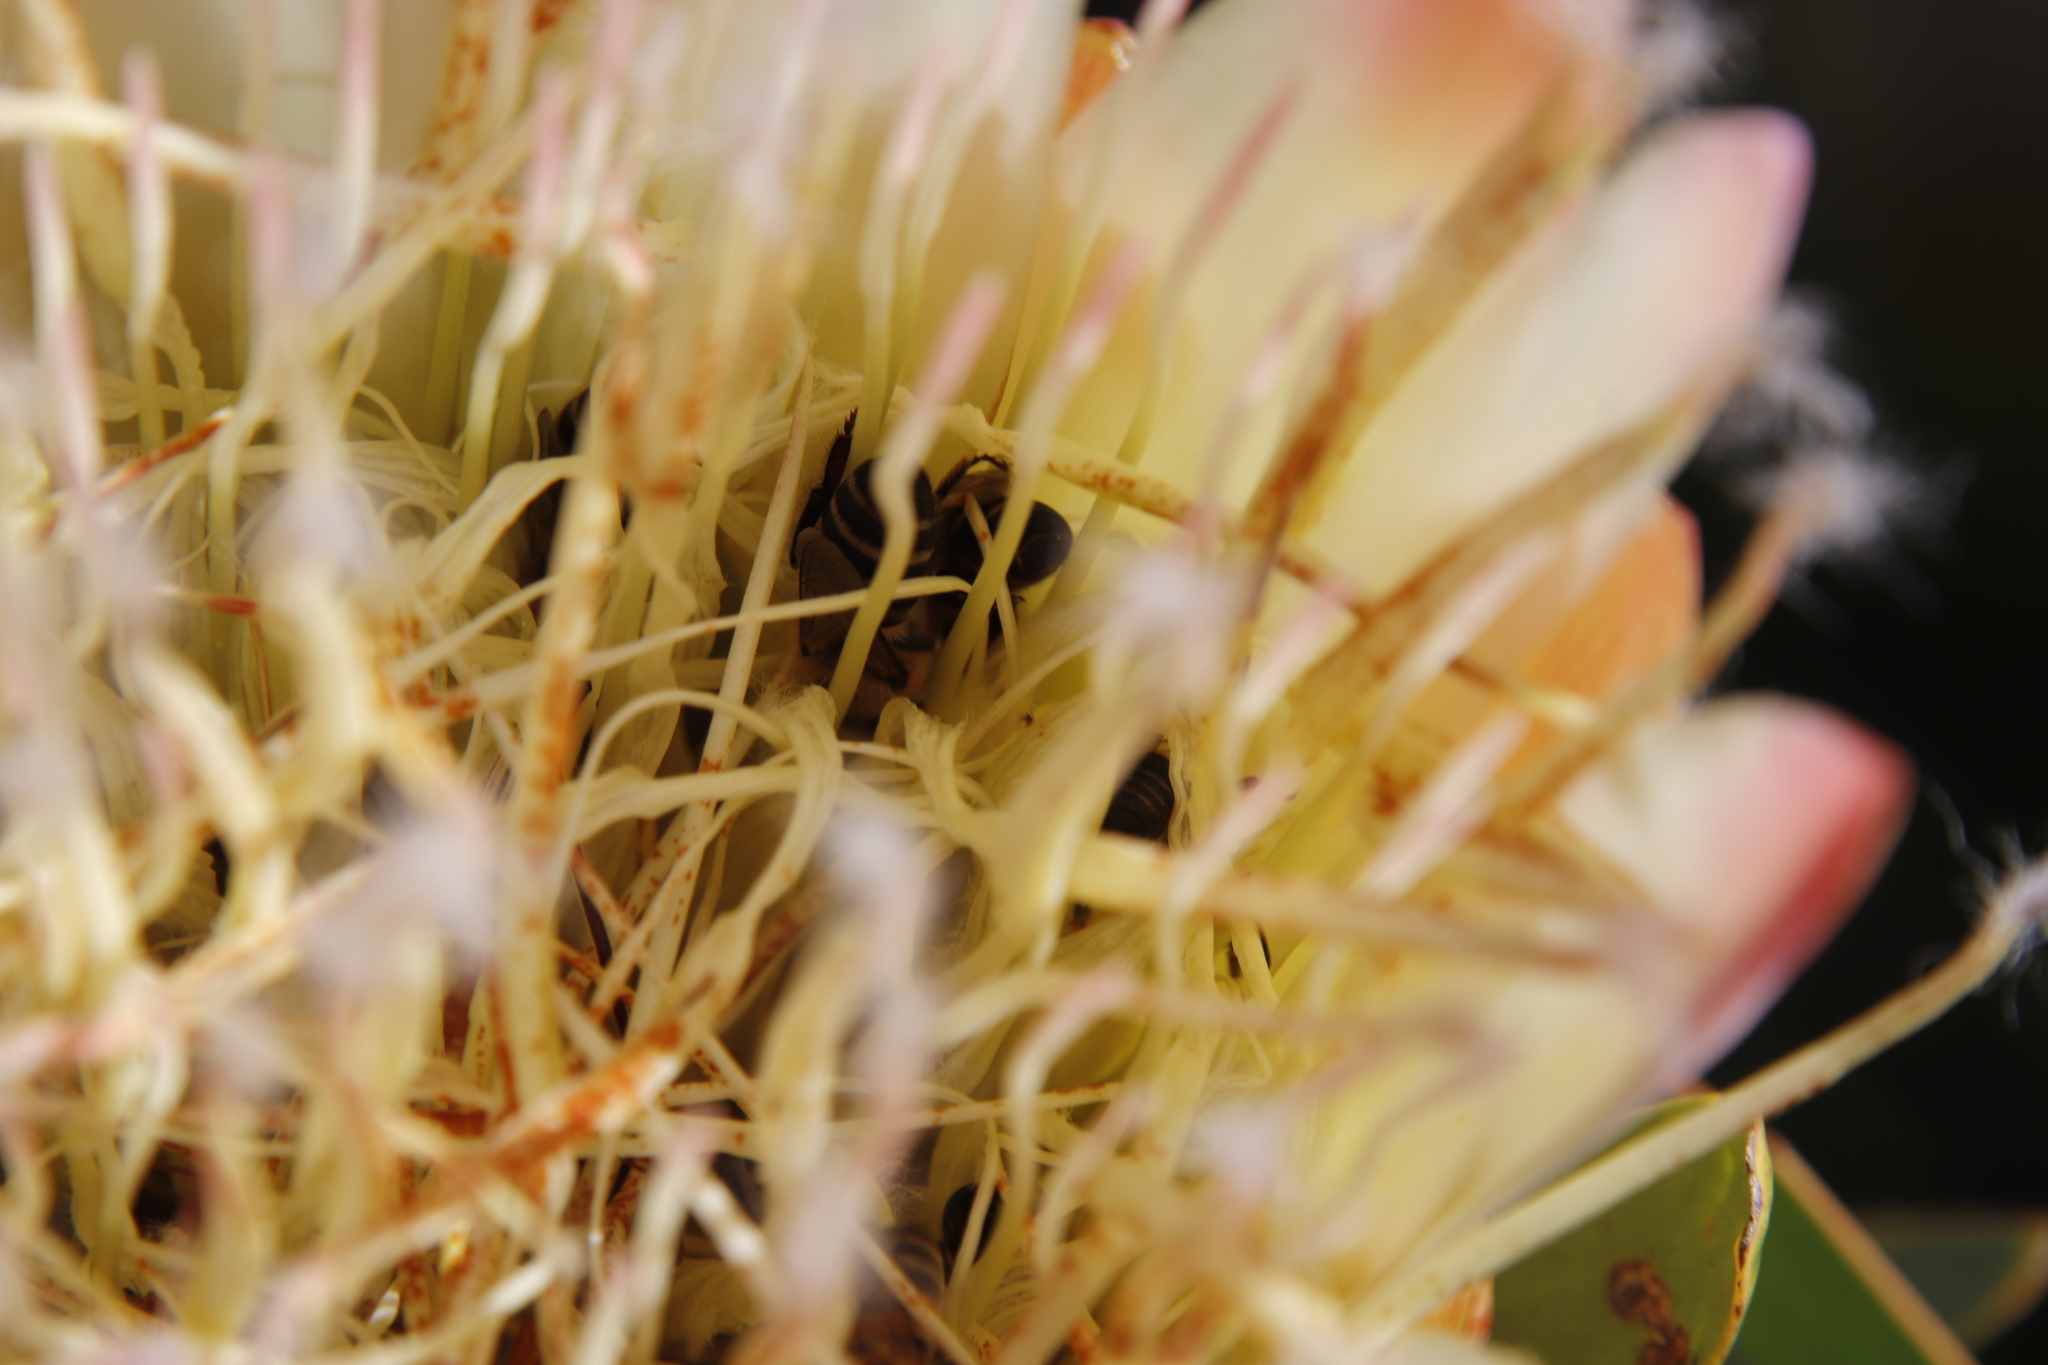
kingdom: Plantae
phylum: Tracheophyta
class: Magnoliopsida
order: Proteales
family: Proteaceae
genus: Protea
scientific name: Protea repens
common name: Sugarbush
